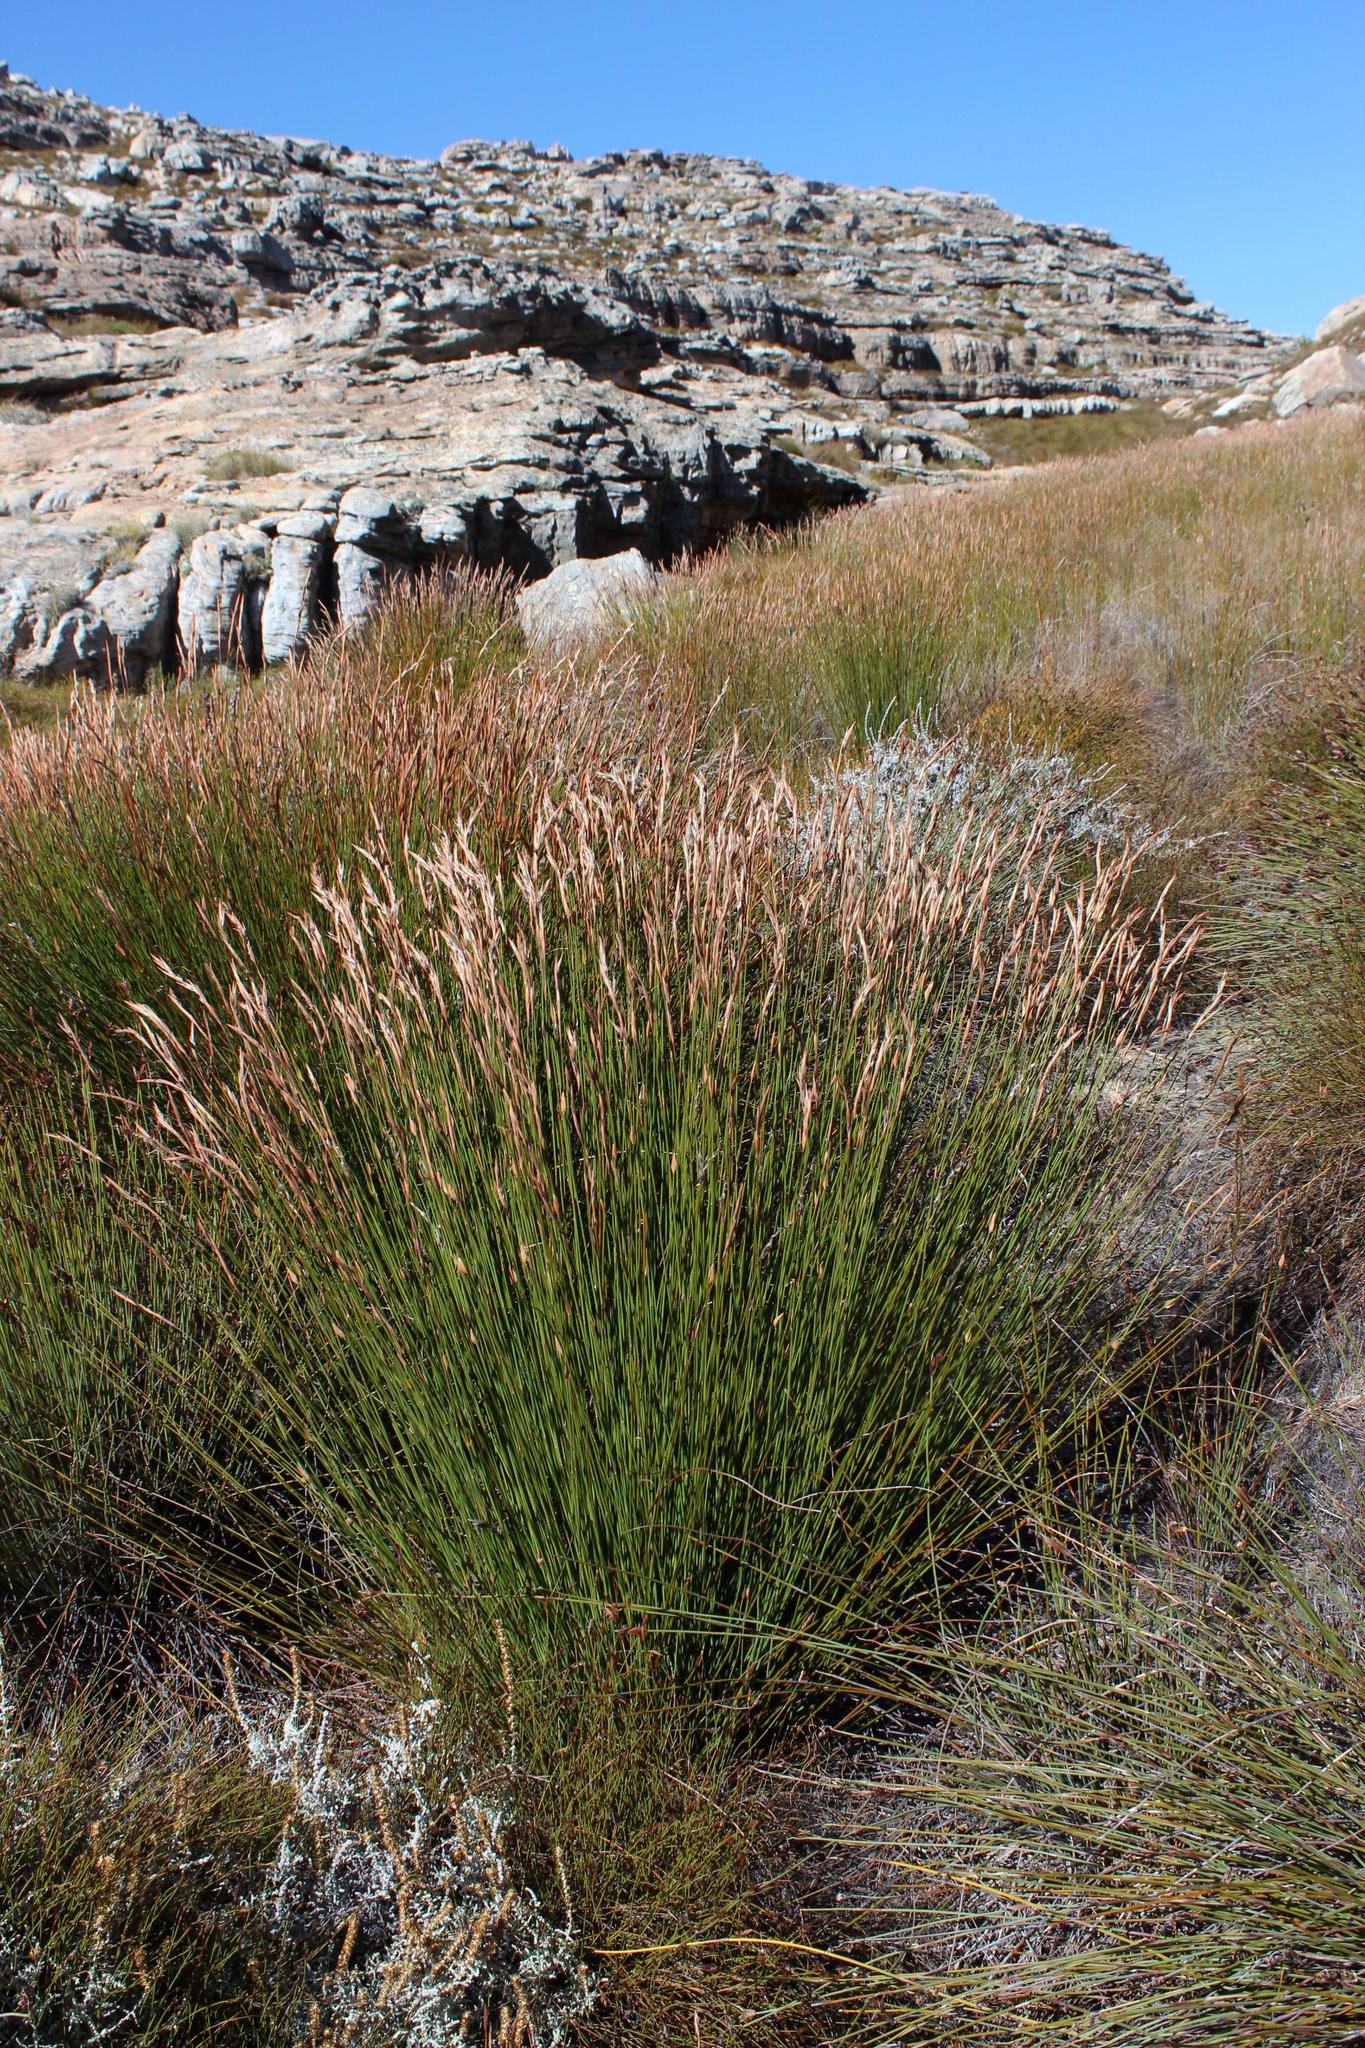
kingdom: Plantae
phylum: Tracheophyta
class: Liliopsida
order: Poales
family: Restionaceae
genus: Askidiosperma
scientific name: Askidiosperma nitidum
